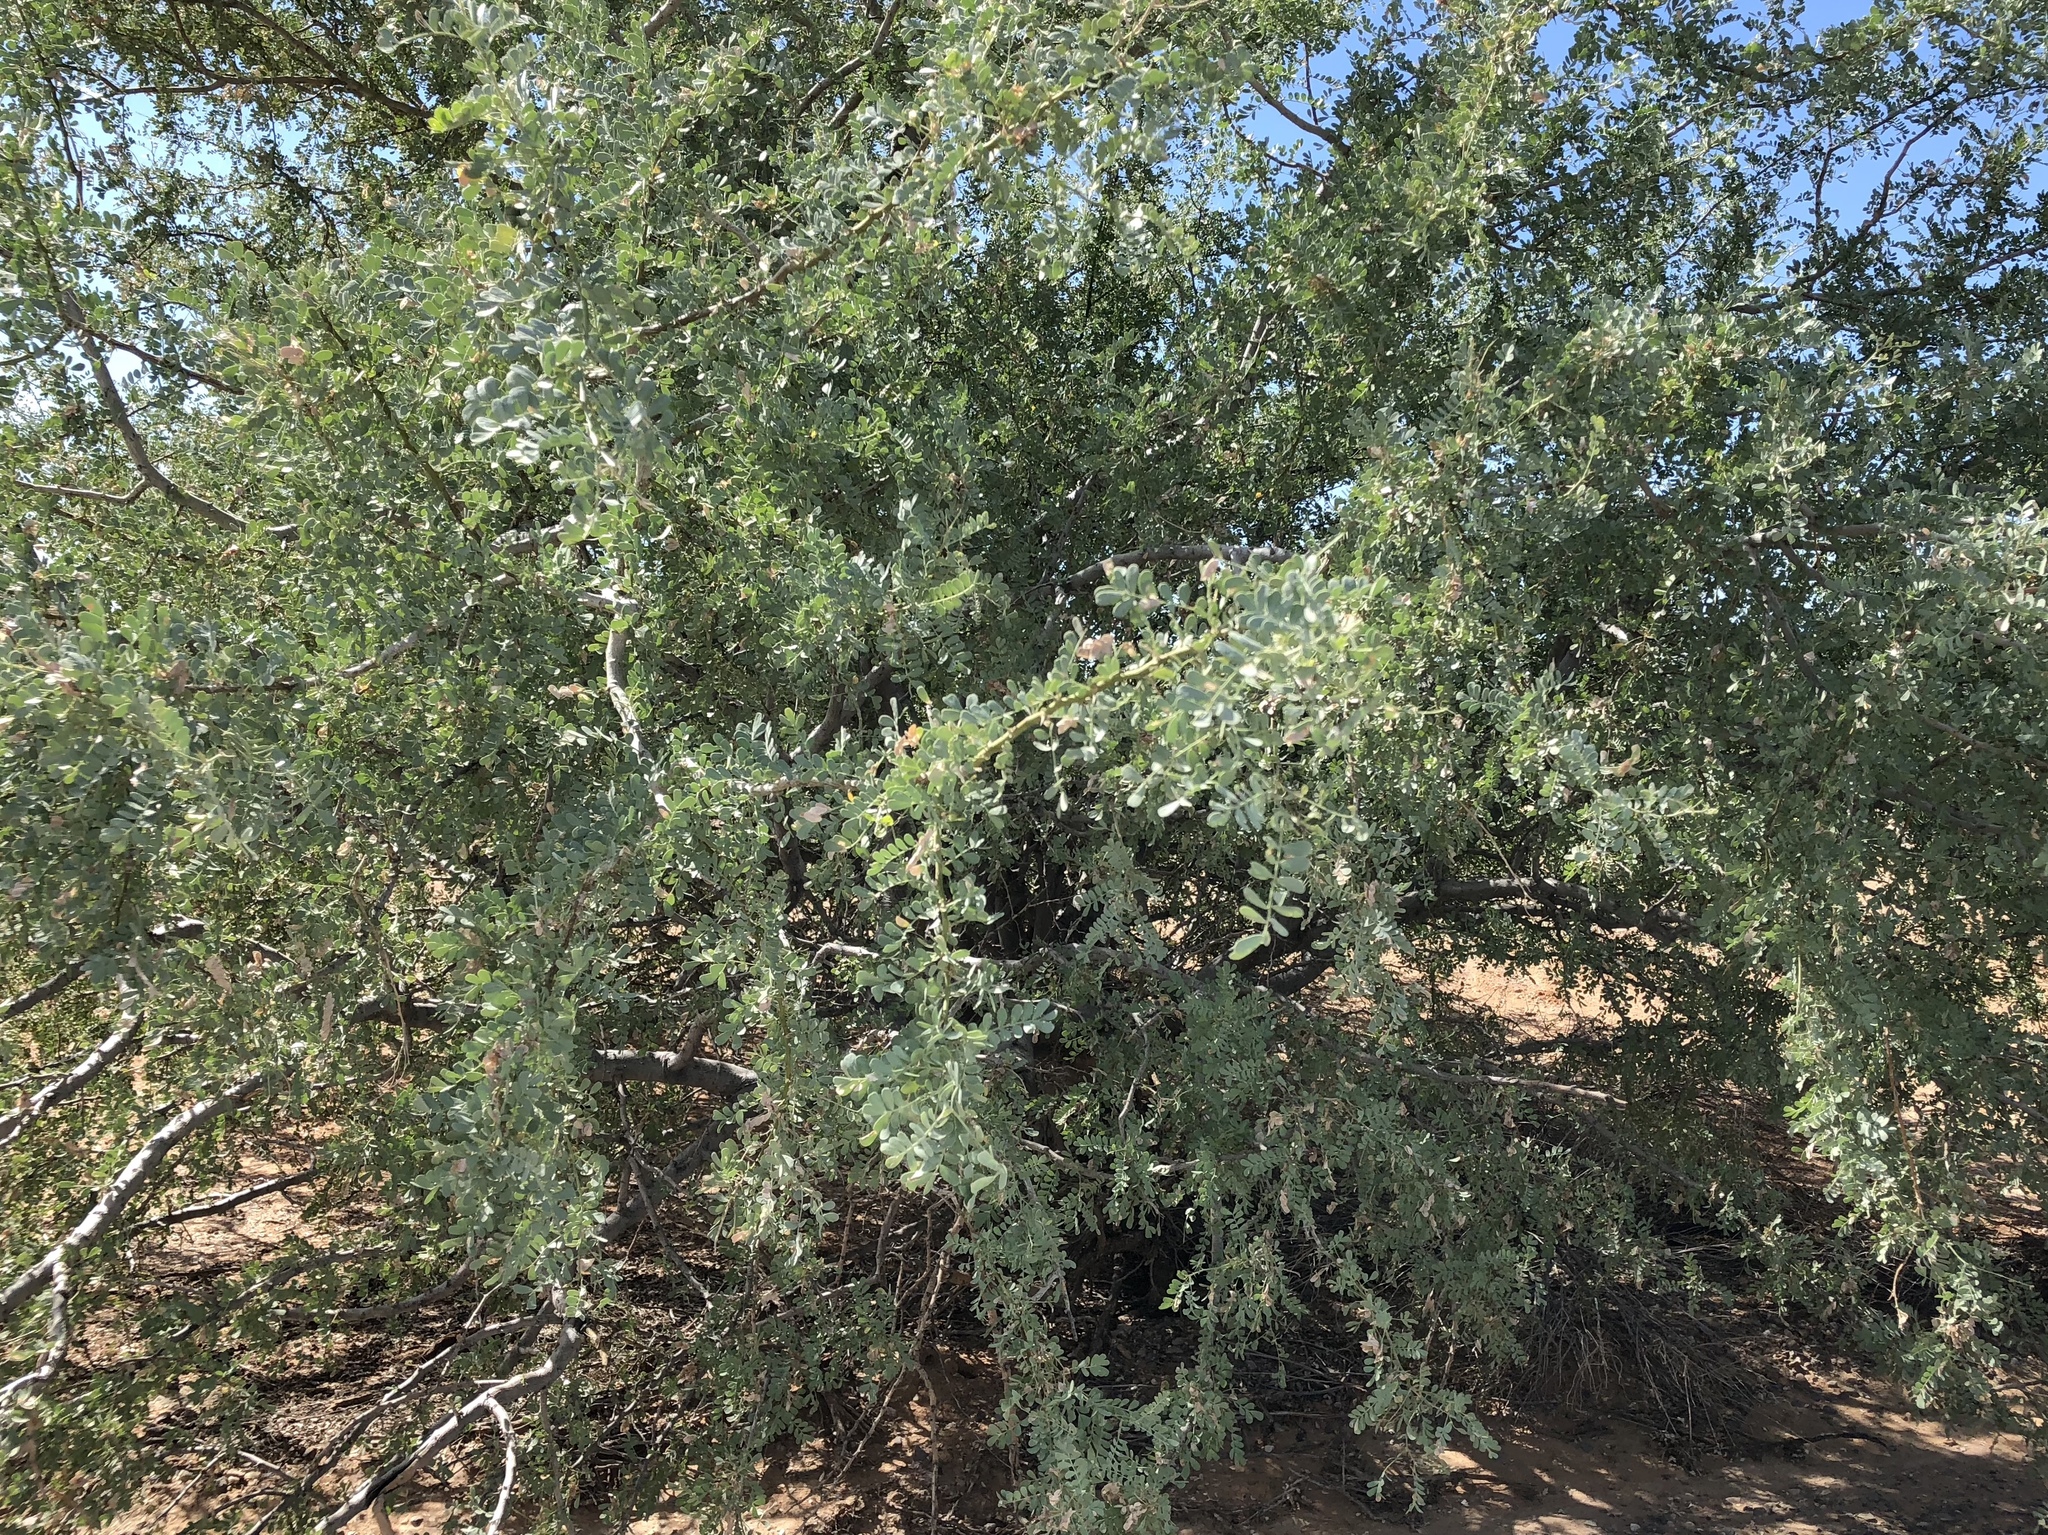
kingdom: Plantae
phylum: Tracheophyta
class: Magnoliopsida
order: Fabales
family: Fabaceae
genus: Olneya
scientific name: Olneya tesota
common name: Desert ironwood
